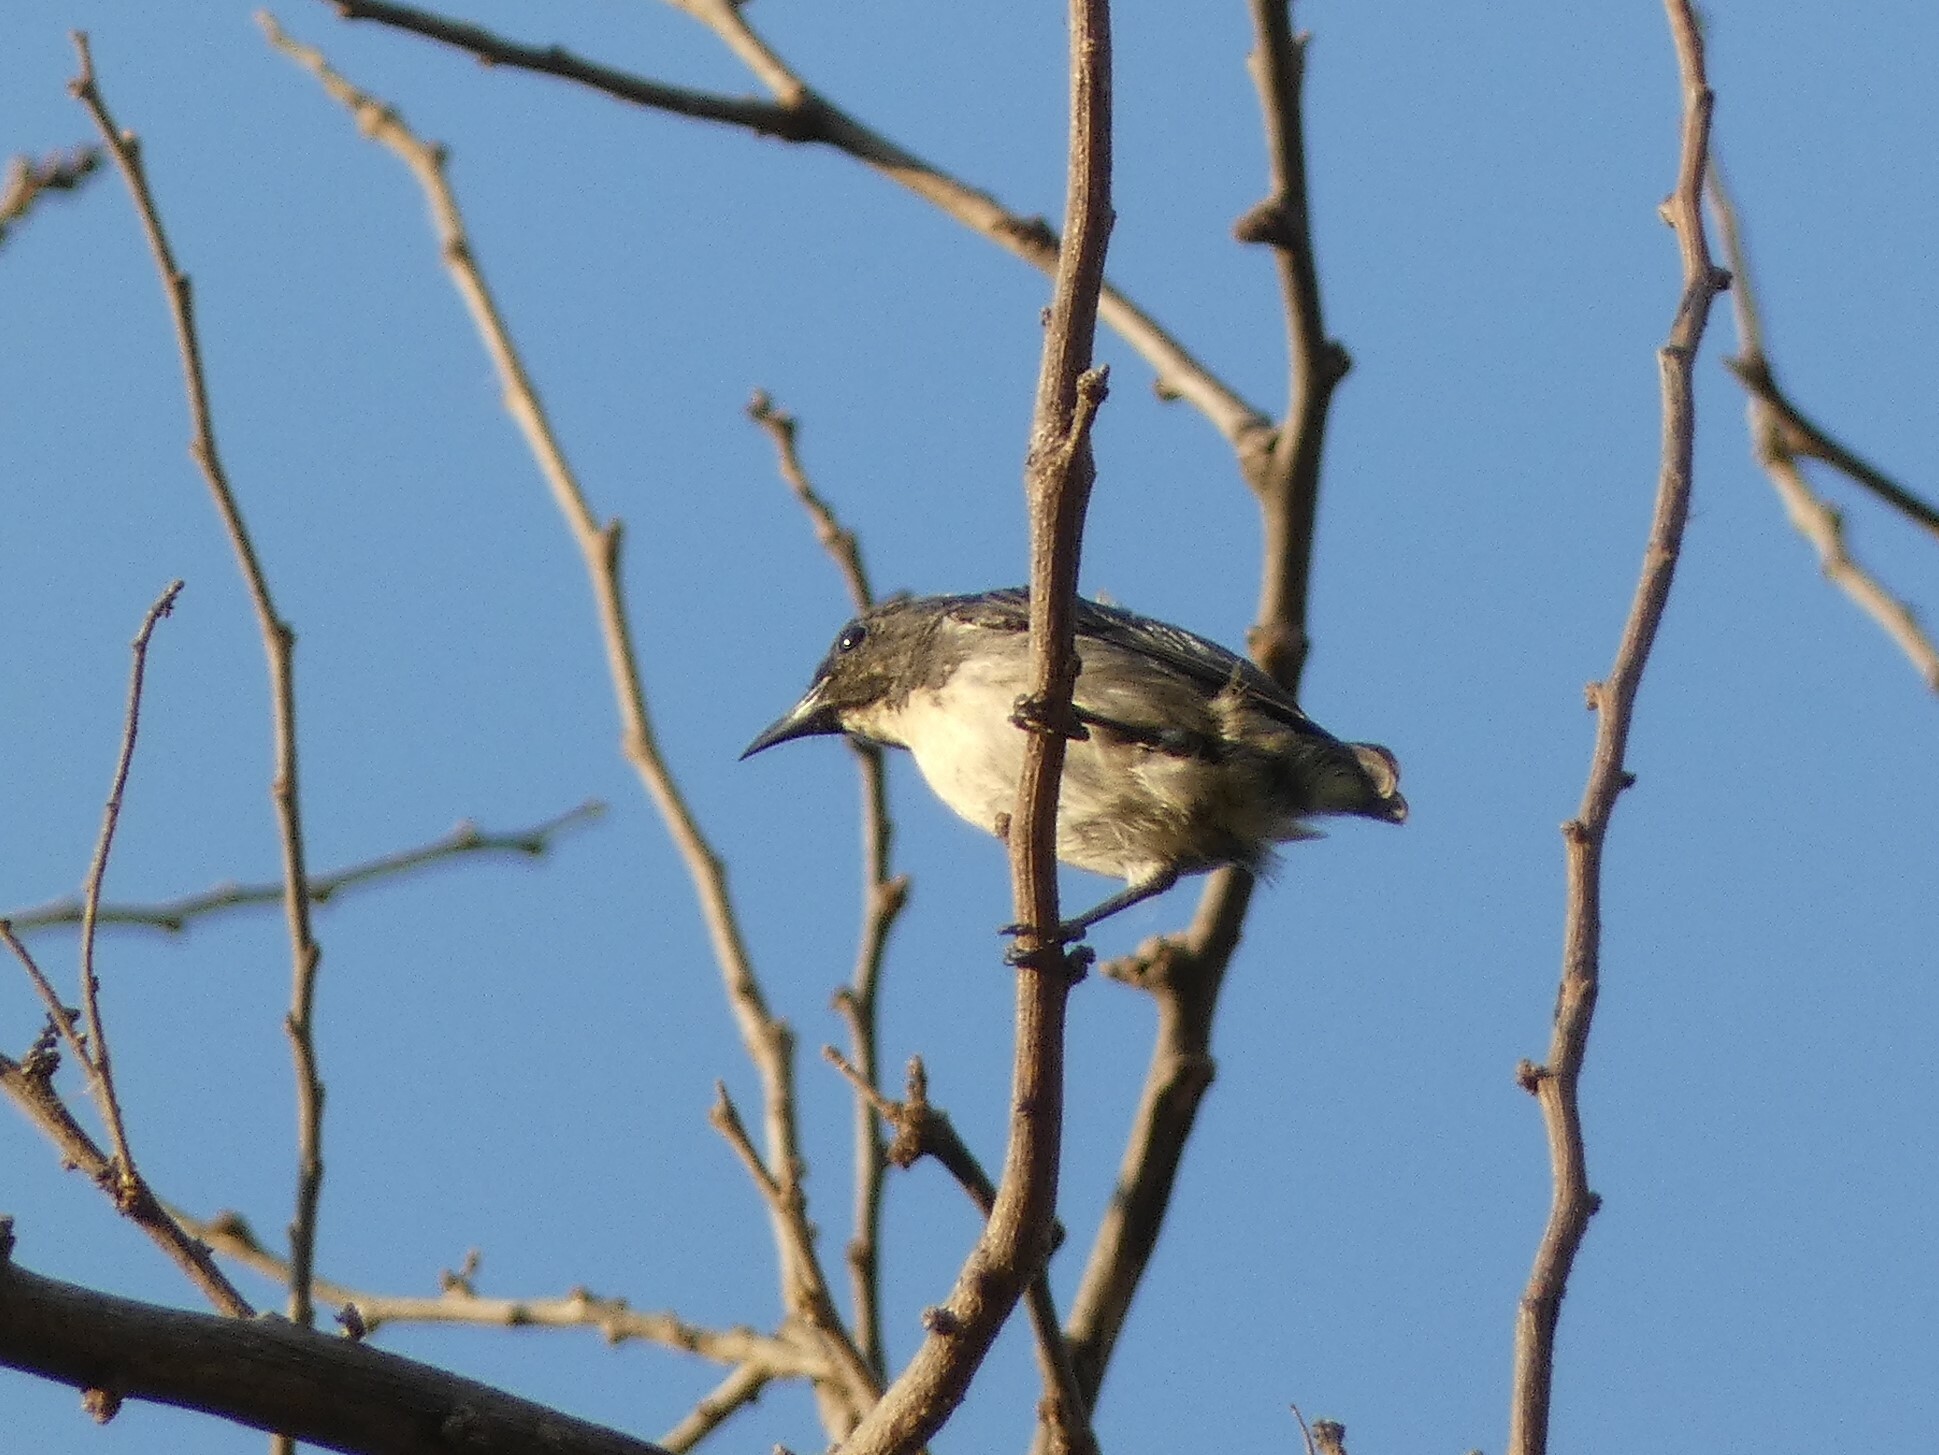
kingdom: Animalia
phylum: Chordata
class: Aves
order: Passeriformes
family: Dicaeidae
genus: Dicaeum
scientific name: Dicaeum cruentatum
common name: Scarlet-backed flowerpecker
